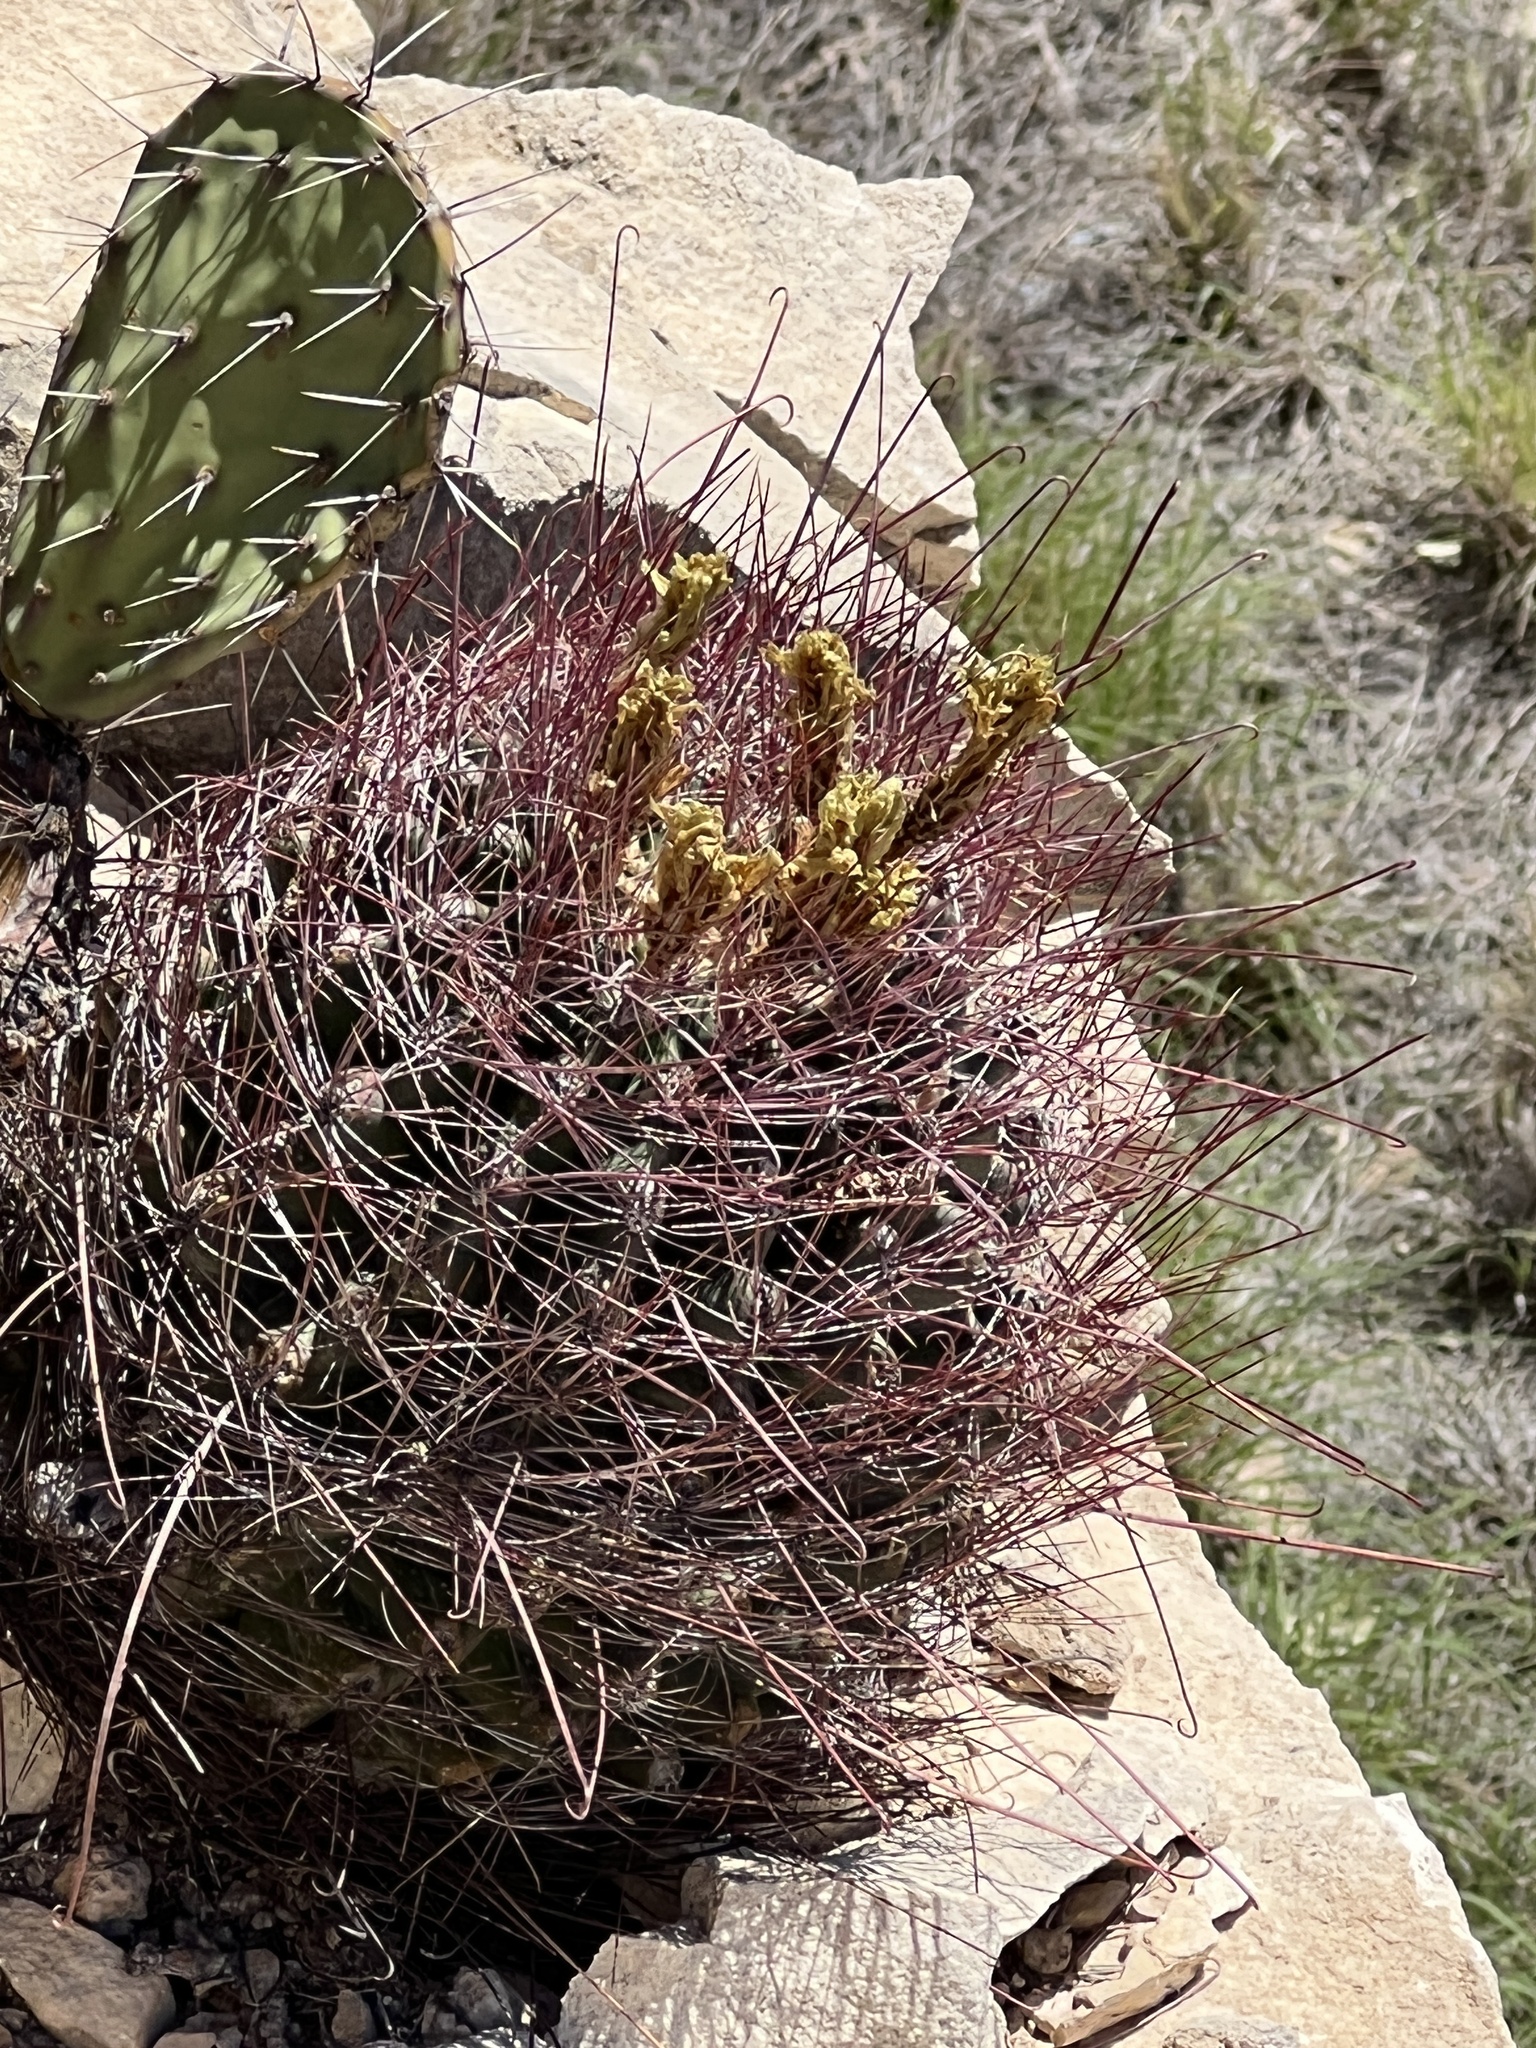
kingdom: Plantae
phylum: Tracheophyta
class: Magnoliopsida
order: Caryophyllales
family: Cactaceae
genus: Bisnaga
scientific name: Bisnaga hamatacantha
